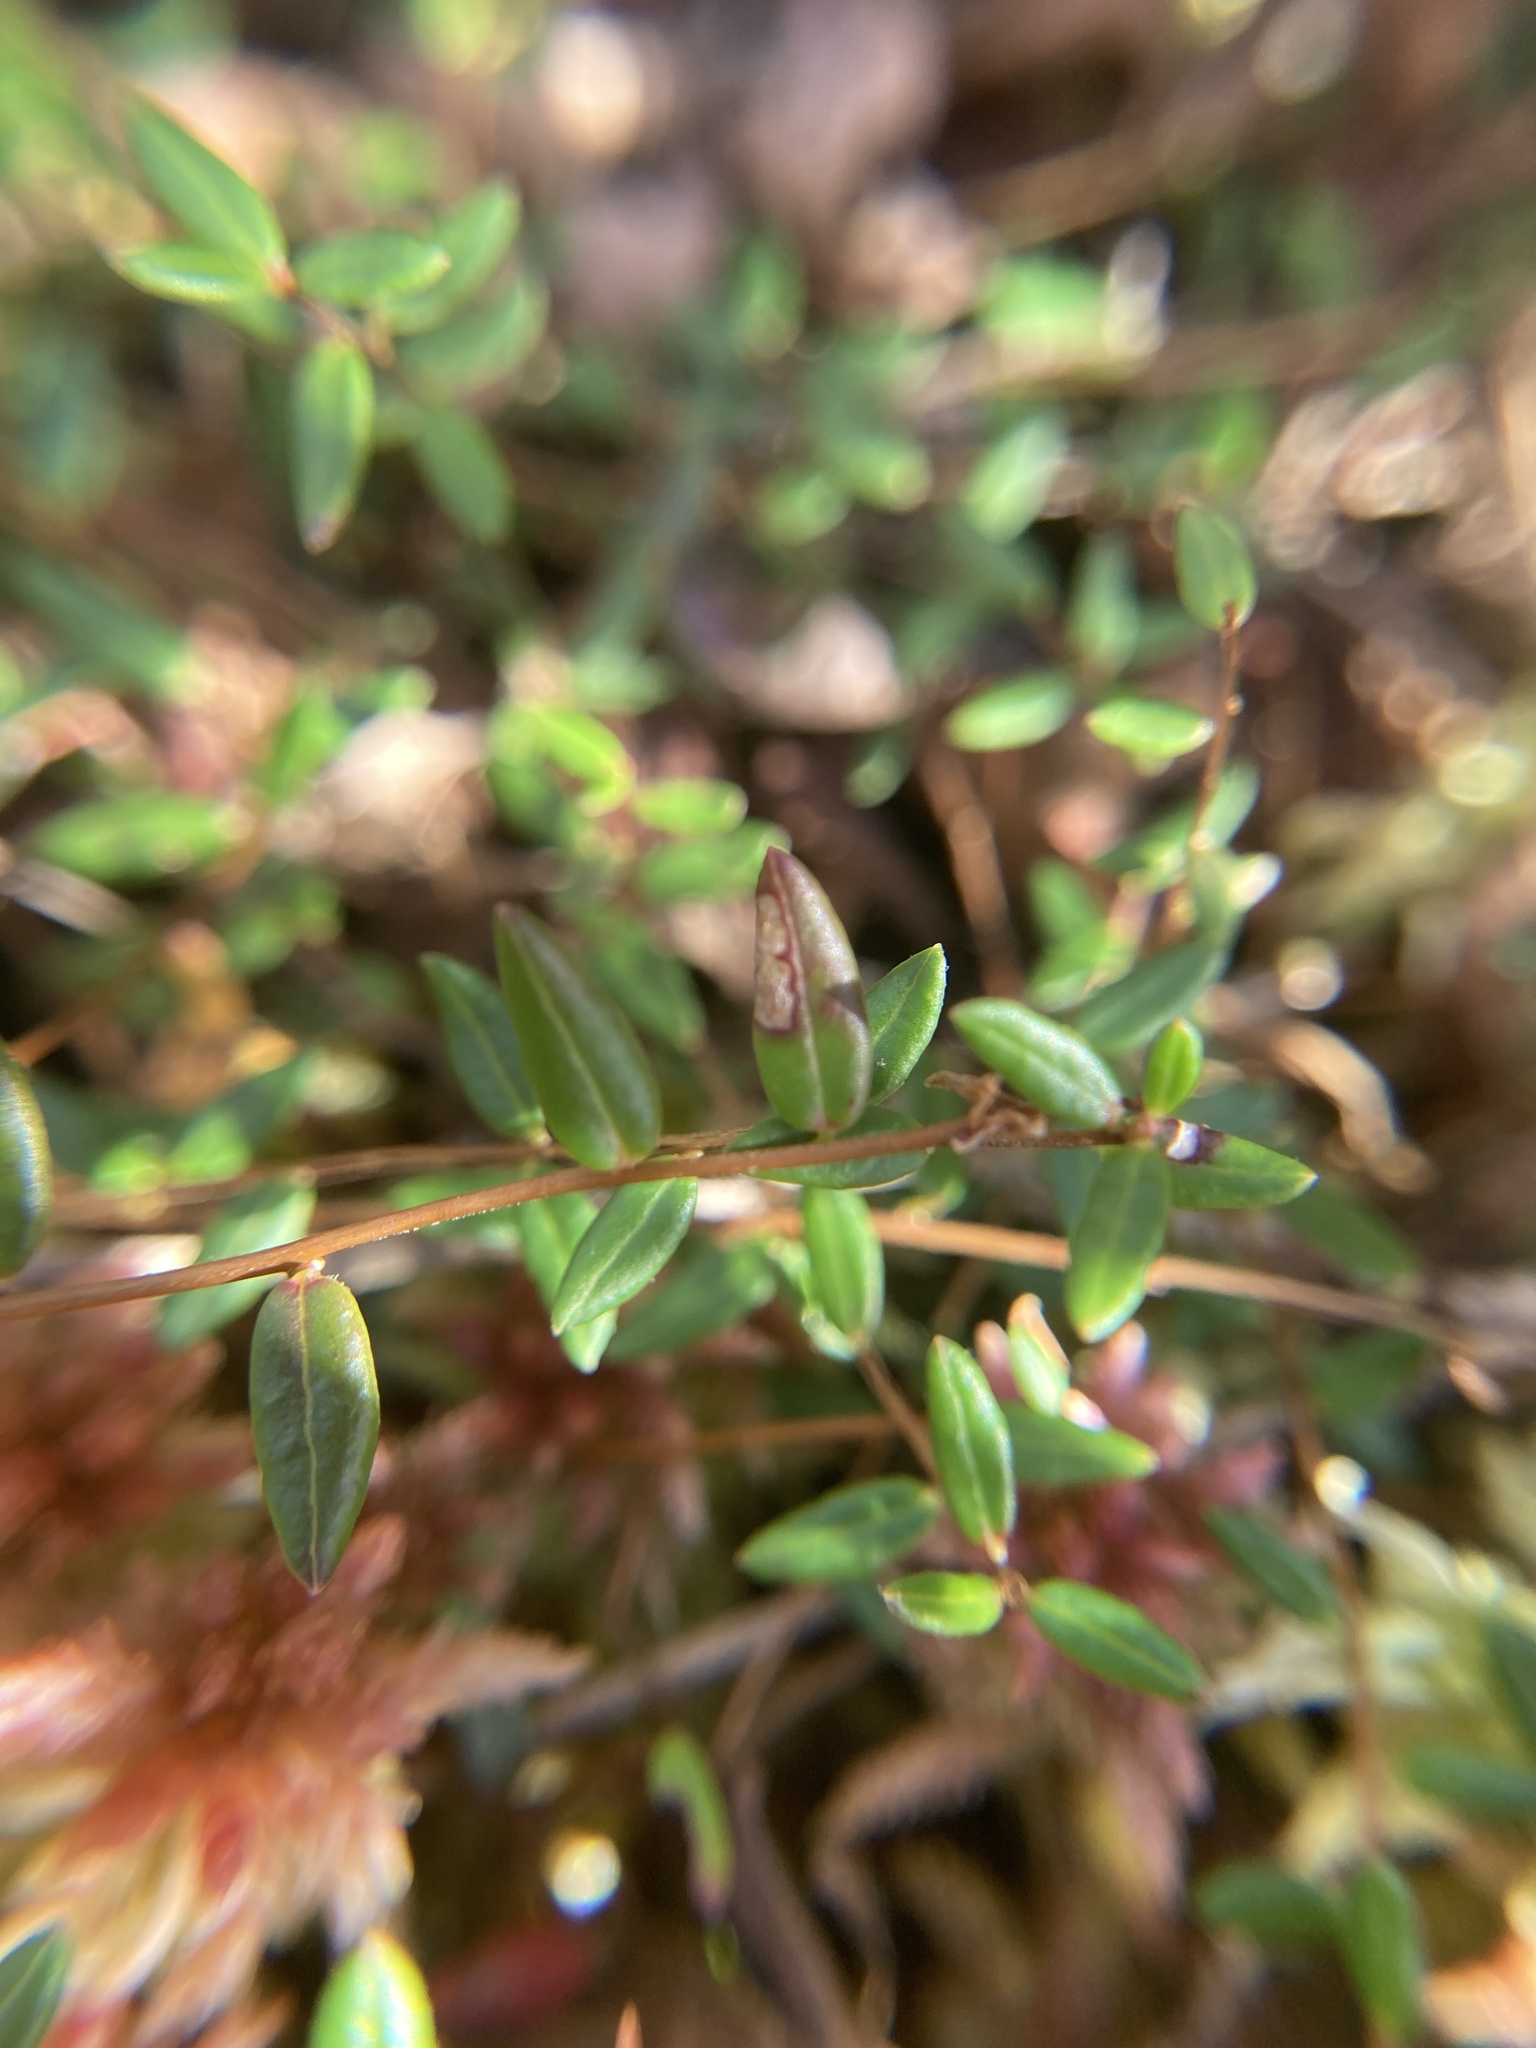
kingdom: Plantae
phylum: Tracheophyta
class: Magnoliopsida
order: Ericales
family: Ericaceae
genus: Vaccinium
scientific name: Vaccinium oxycoccos
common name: Cranberry
